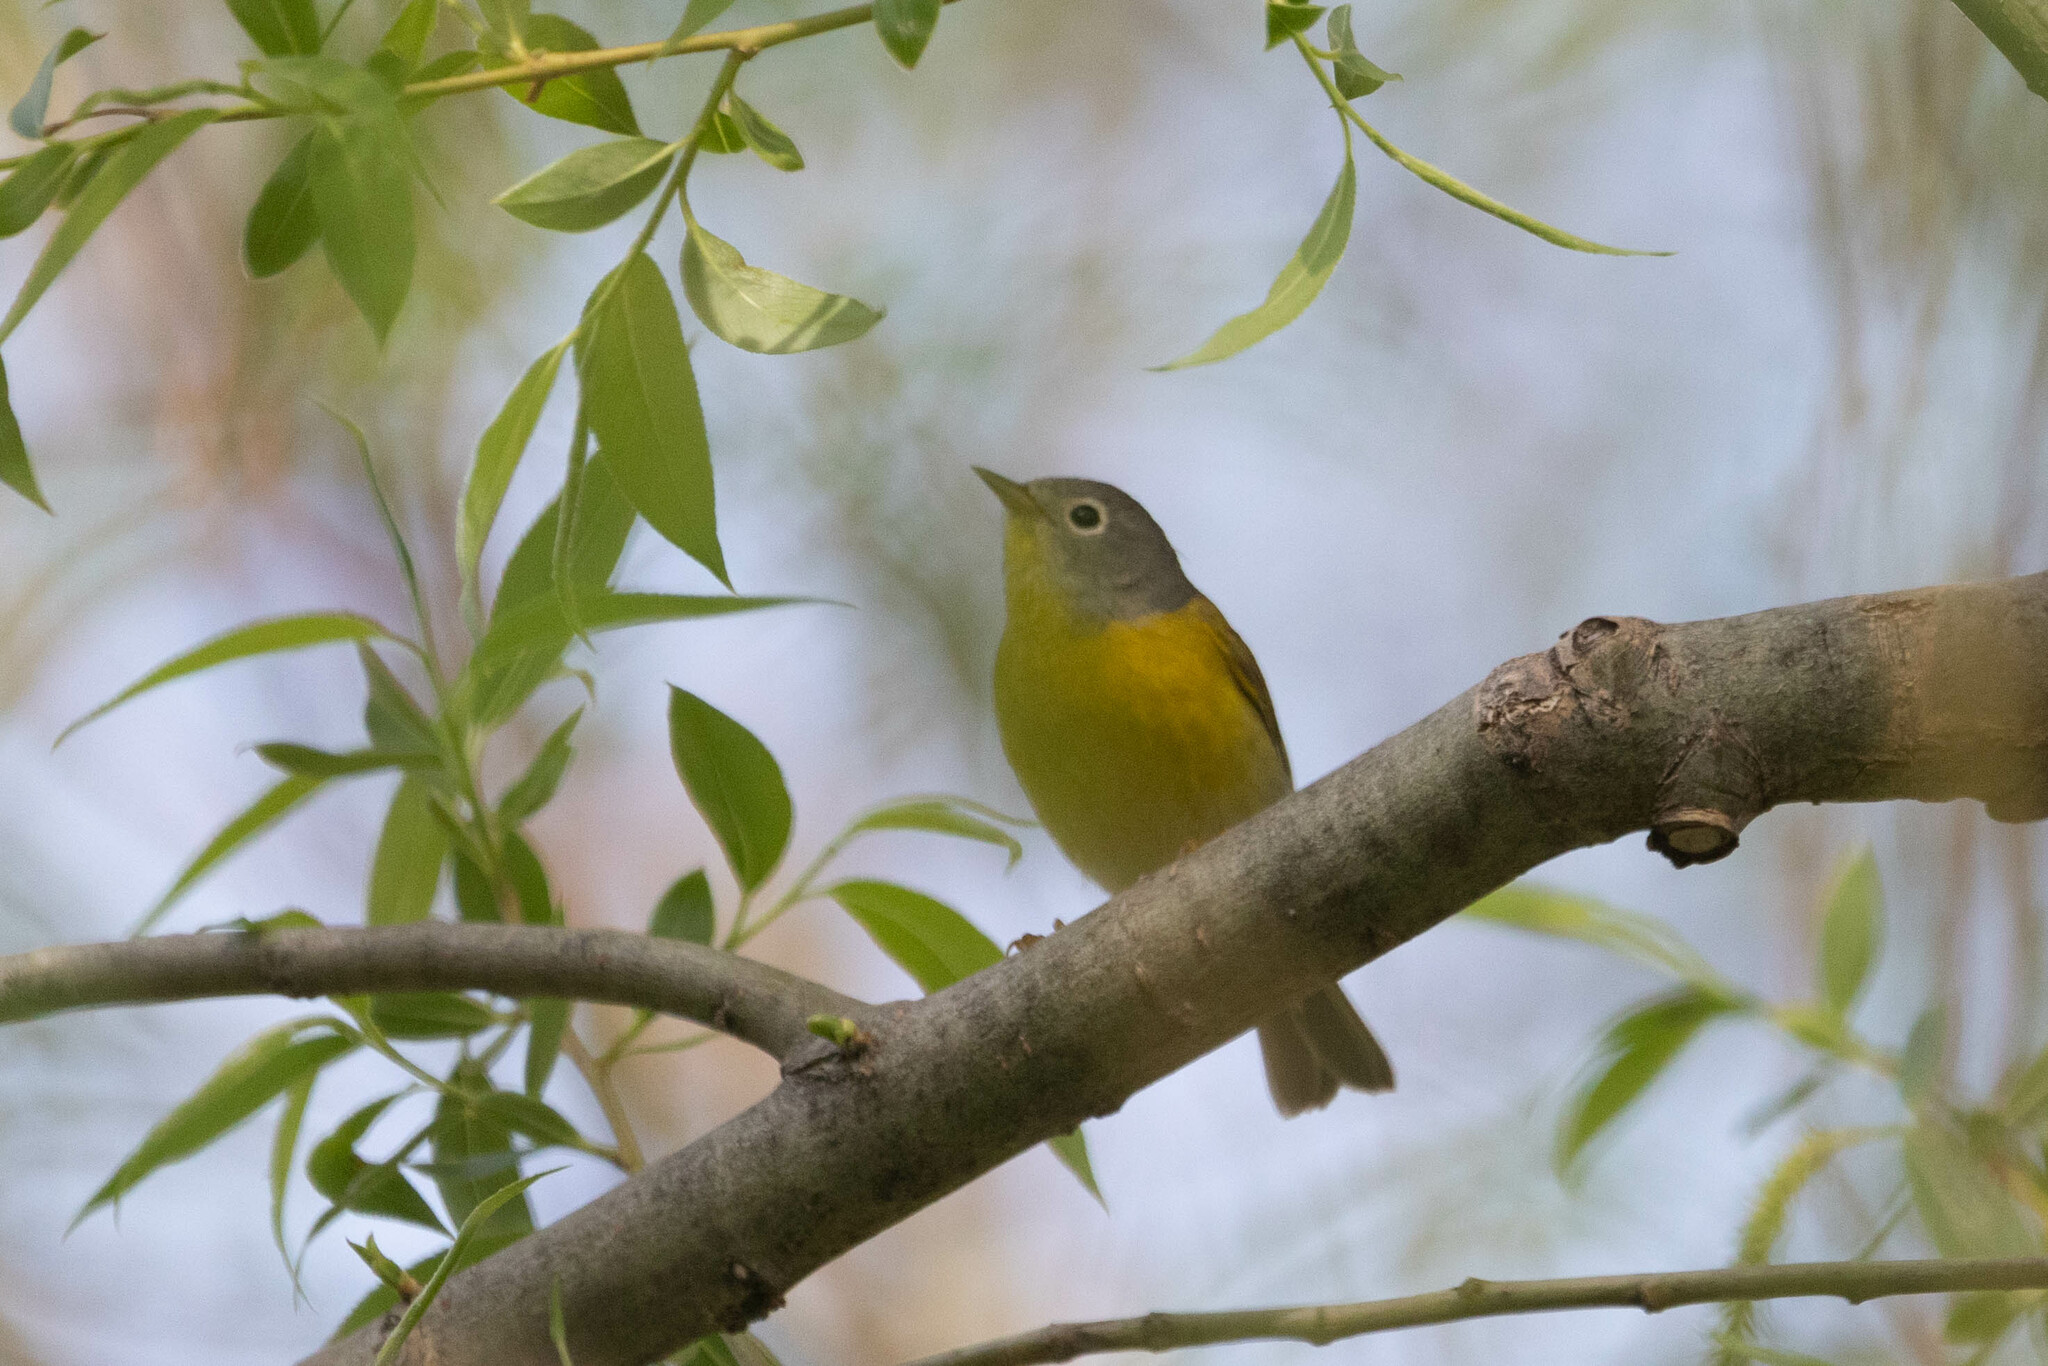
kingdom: Animalia
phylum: Chordata
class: Aves
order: Passeriformes
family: Parulidae
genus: Leiothlypis
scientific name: Leiothlypis ruficapilla
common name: Nashville warbler
